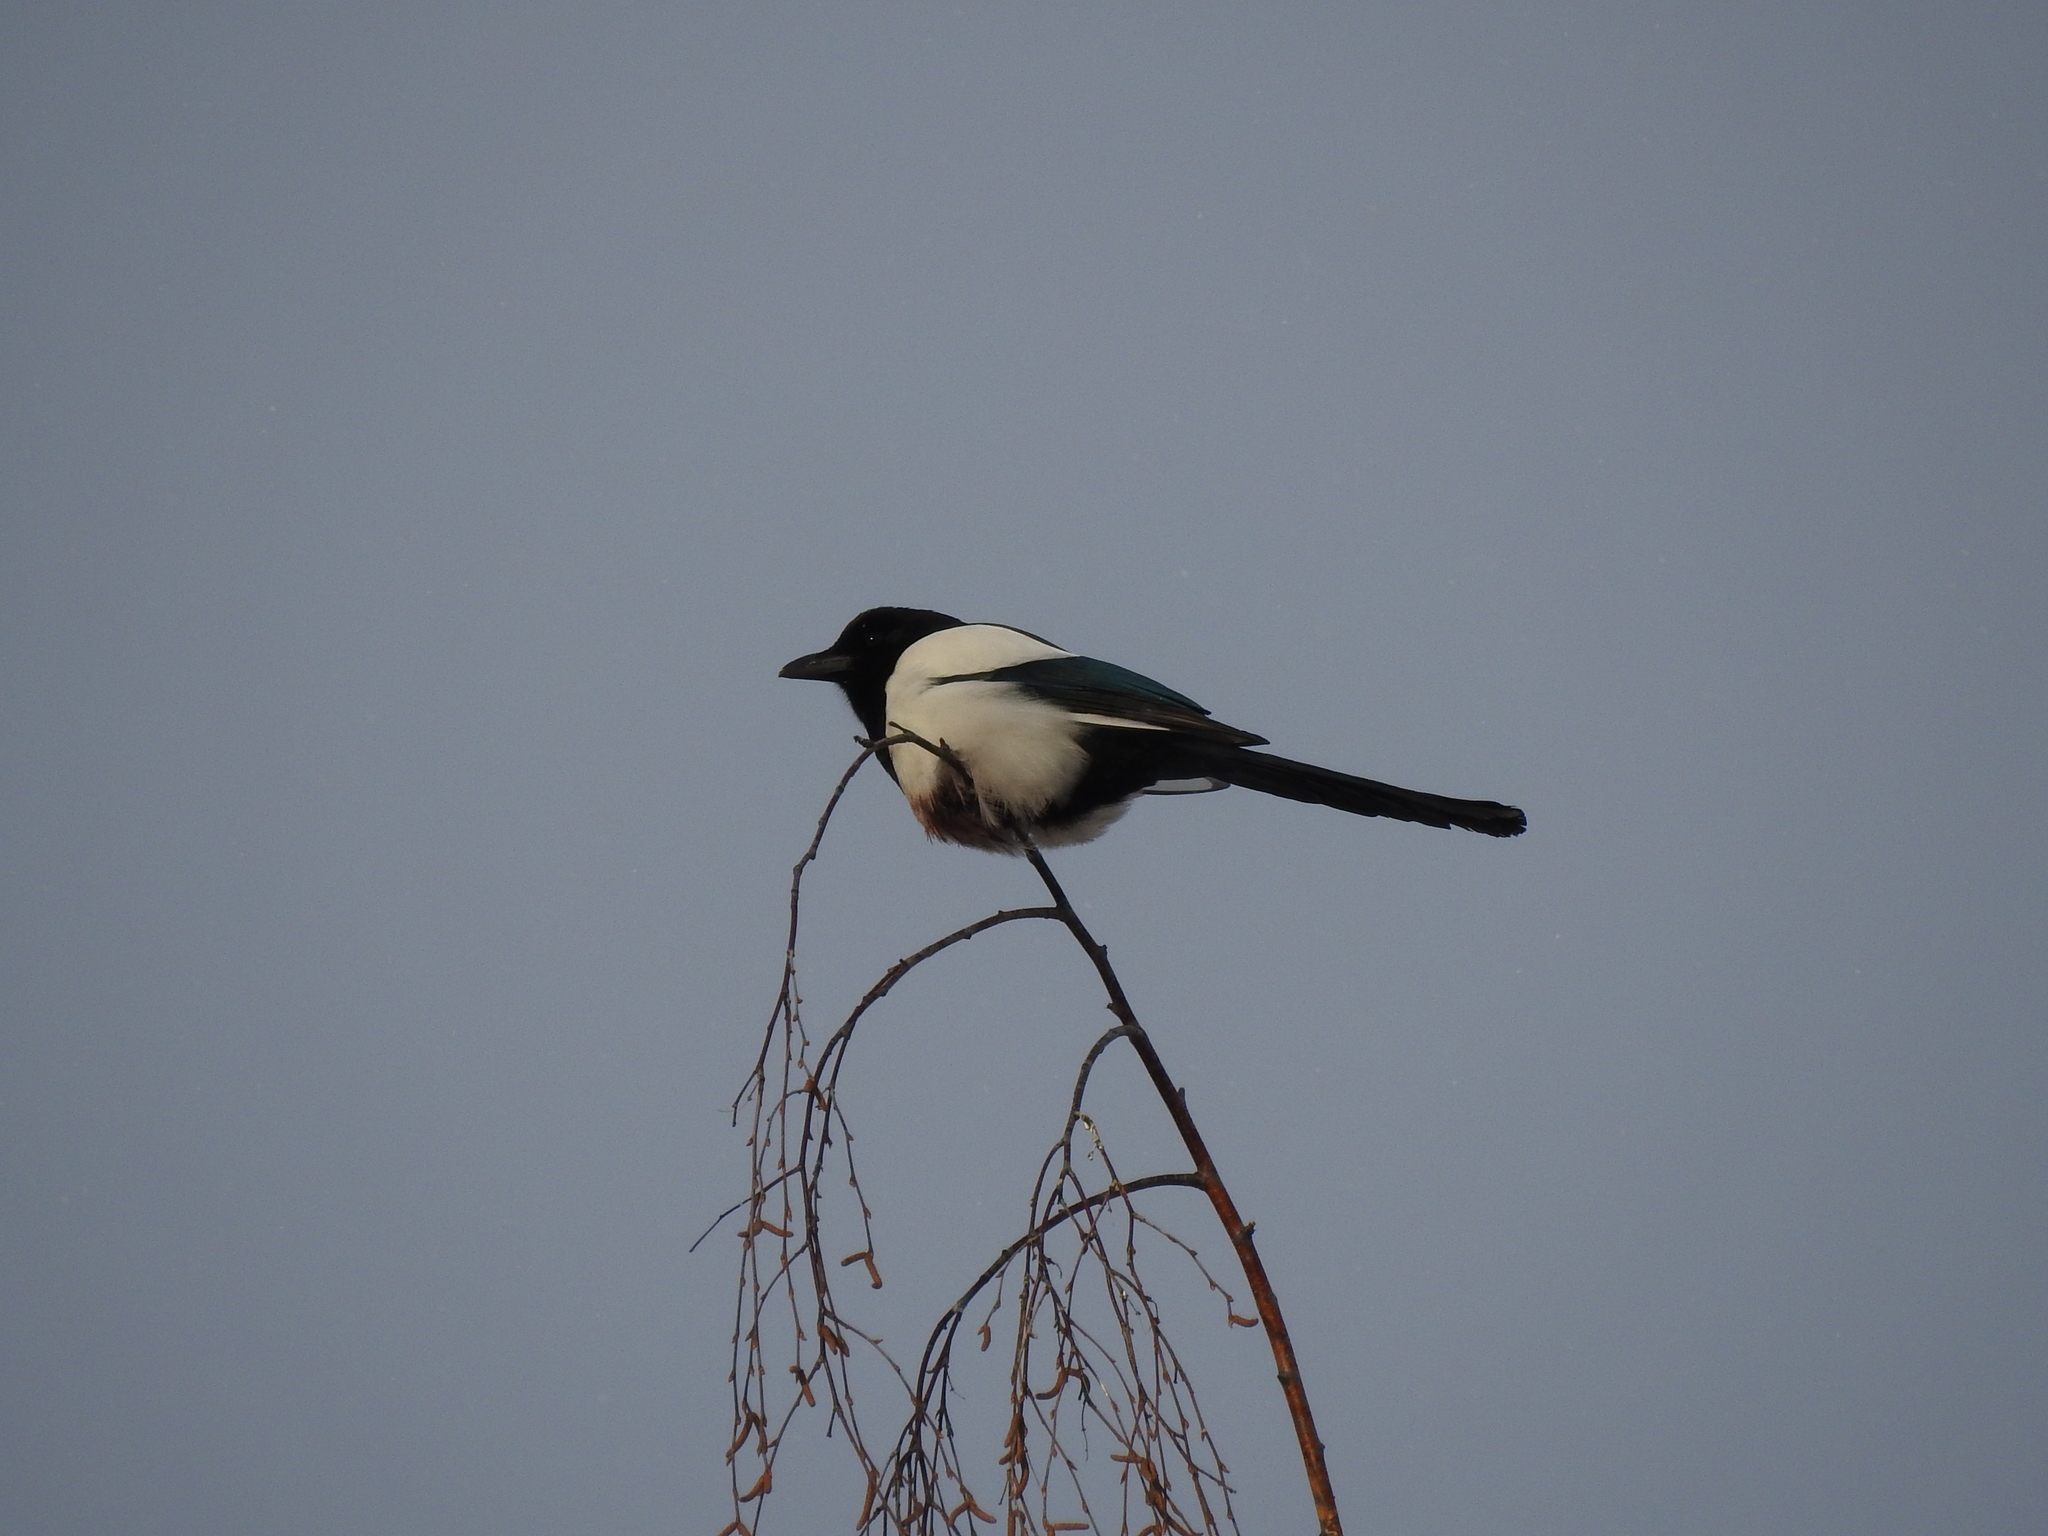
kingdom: Animalia
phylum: Chordata
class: Aves
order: Passeriformes
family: Corvidae
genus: Pica
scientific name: Pica pica
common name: Eurasian magpie
